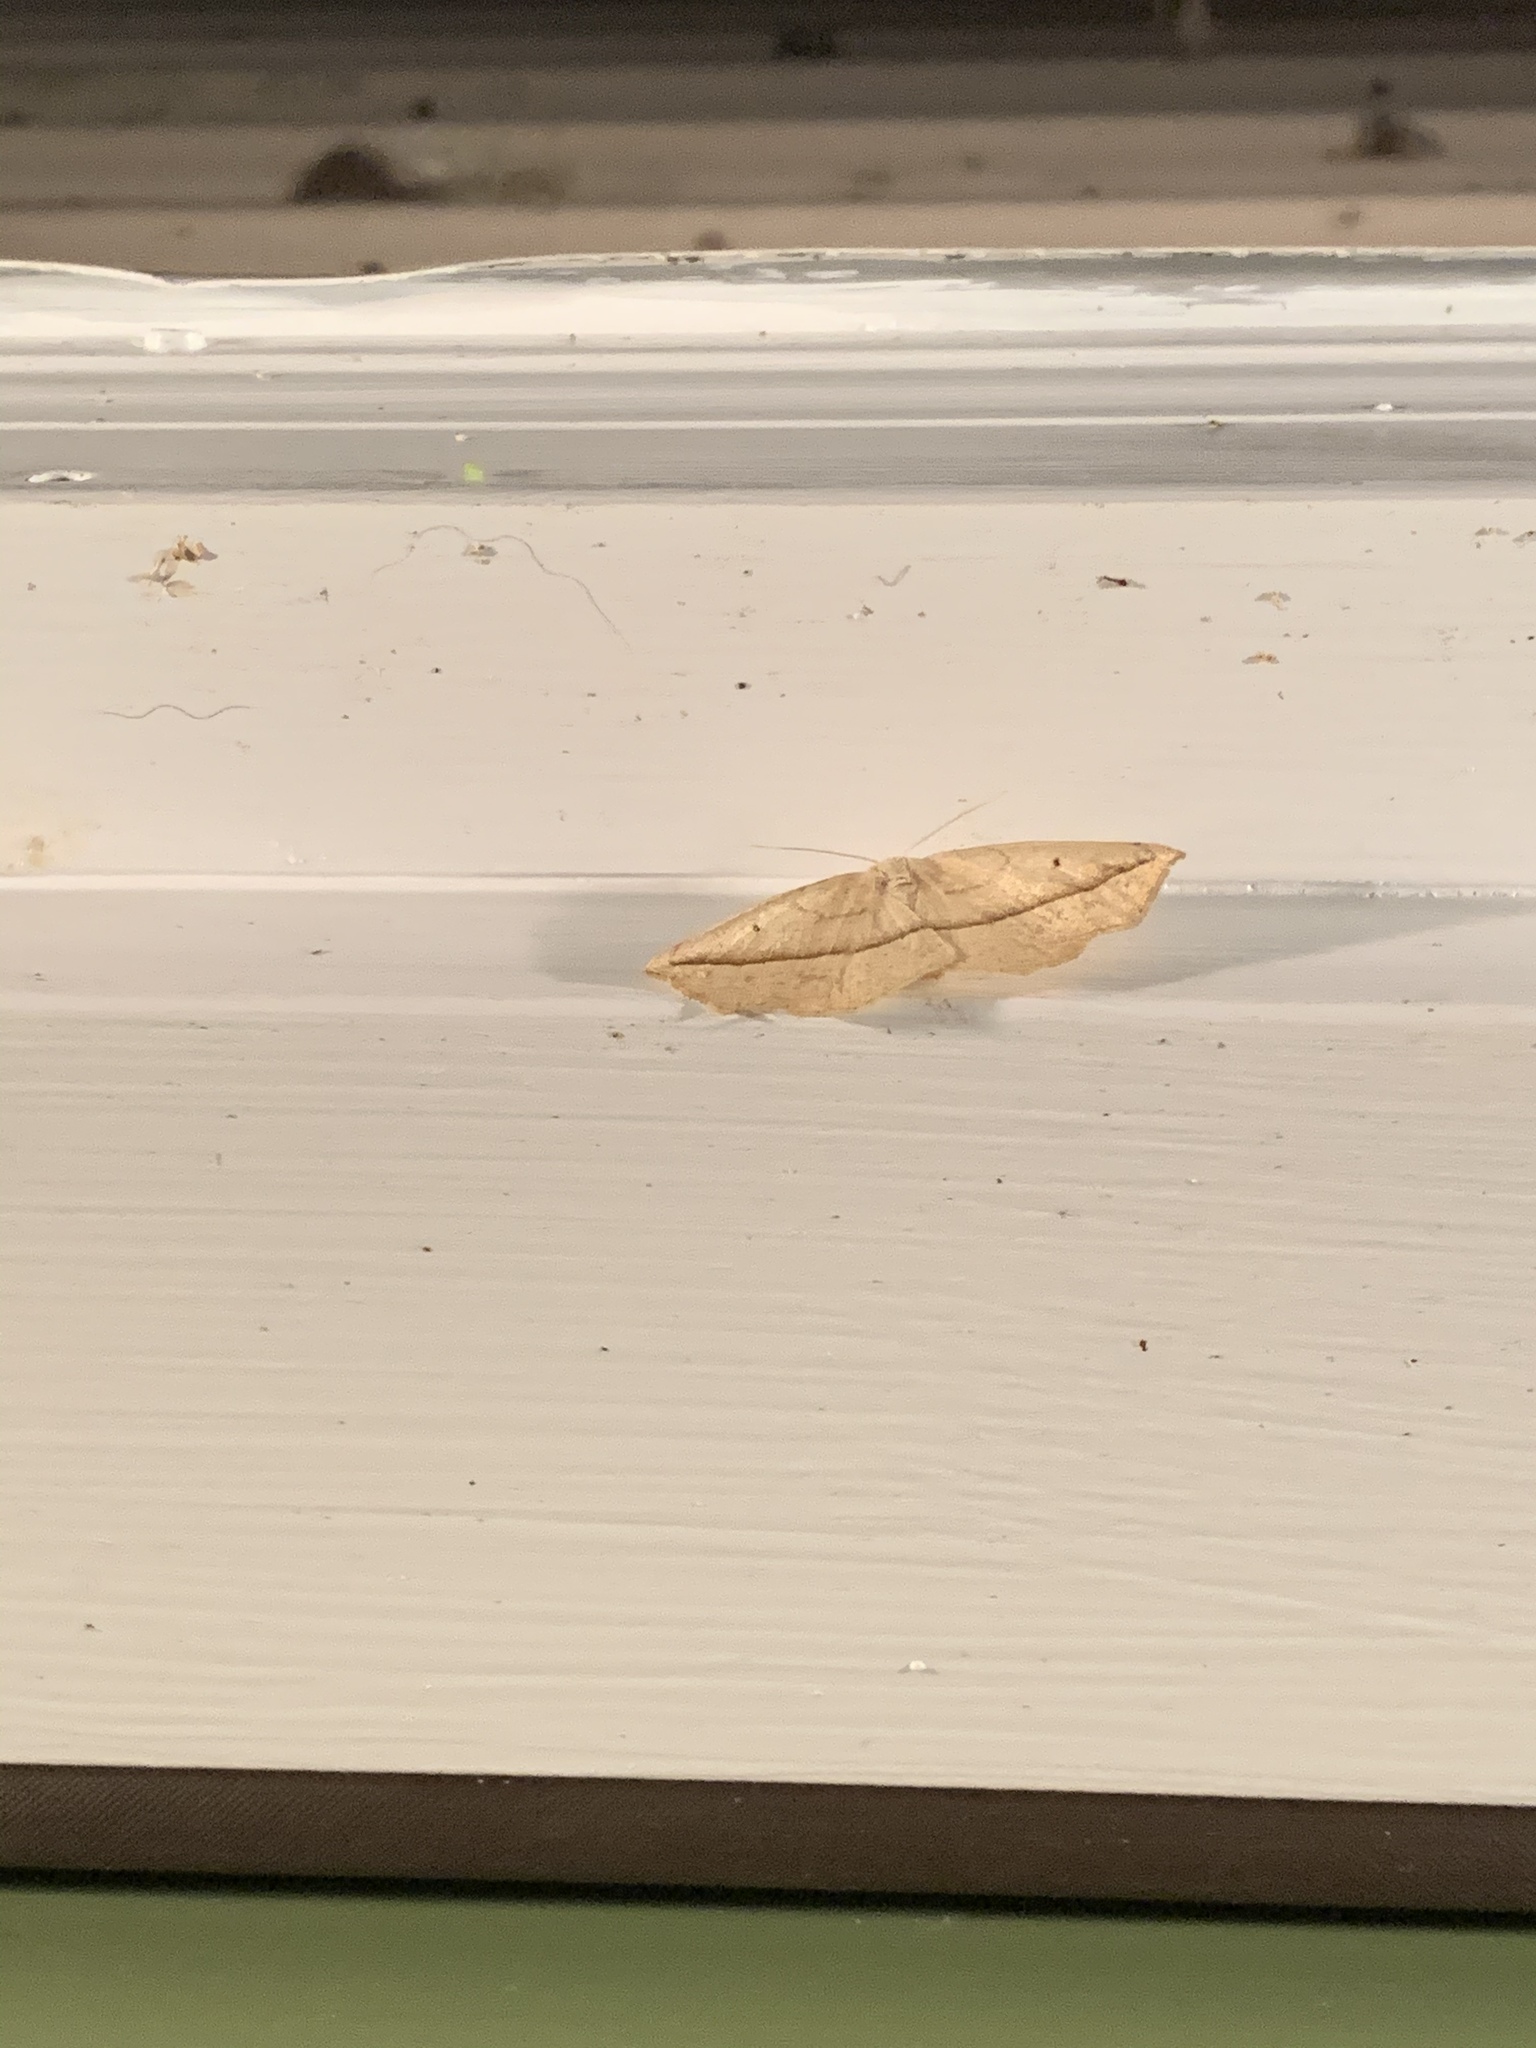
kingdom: Animalia
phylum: Arthropoda
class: Insecta
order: Lepidoptera
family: Geometridae
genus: Tetracis
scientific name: Tetracis crocallata
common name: Yellow slant-line
